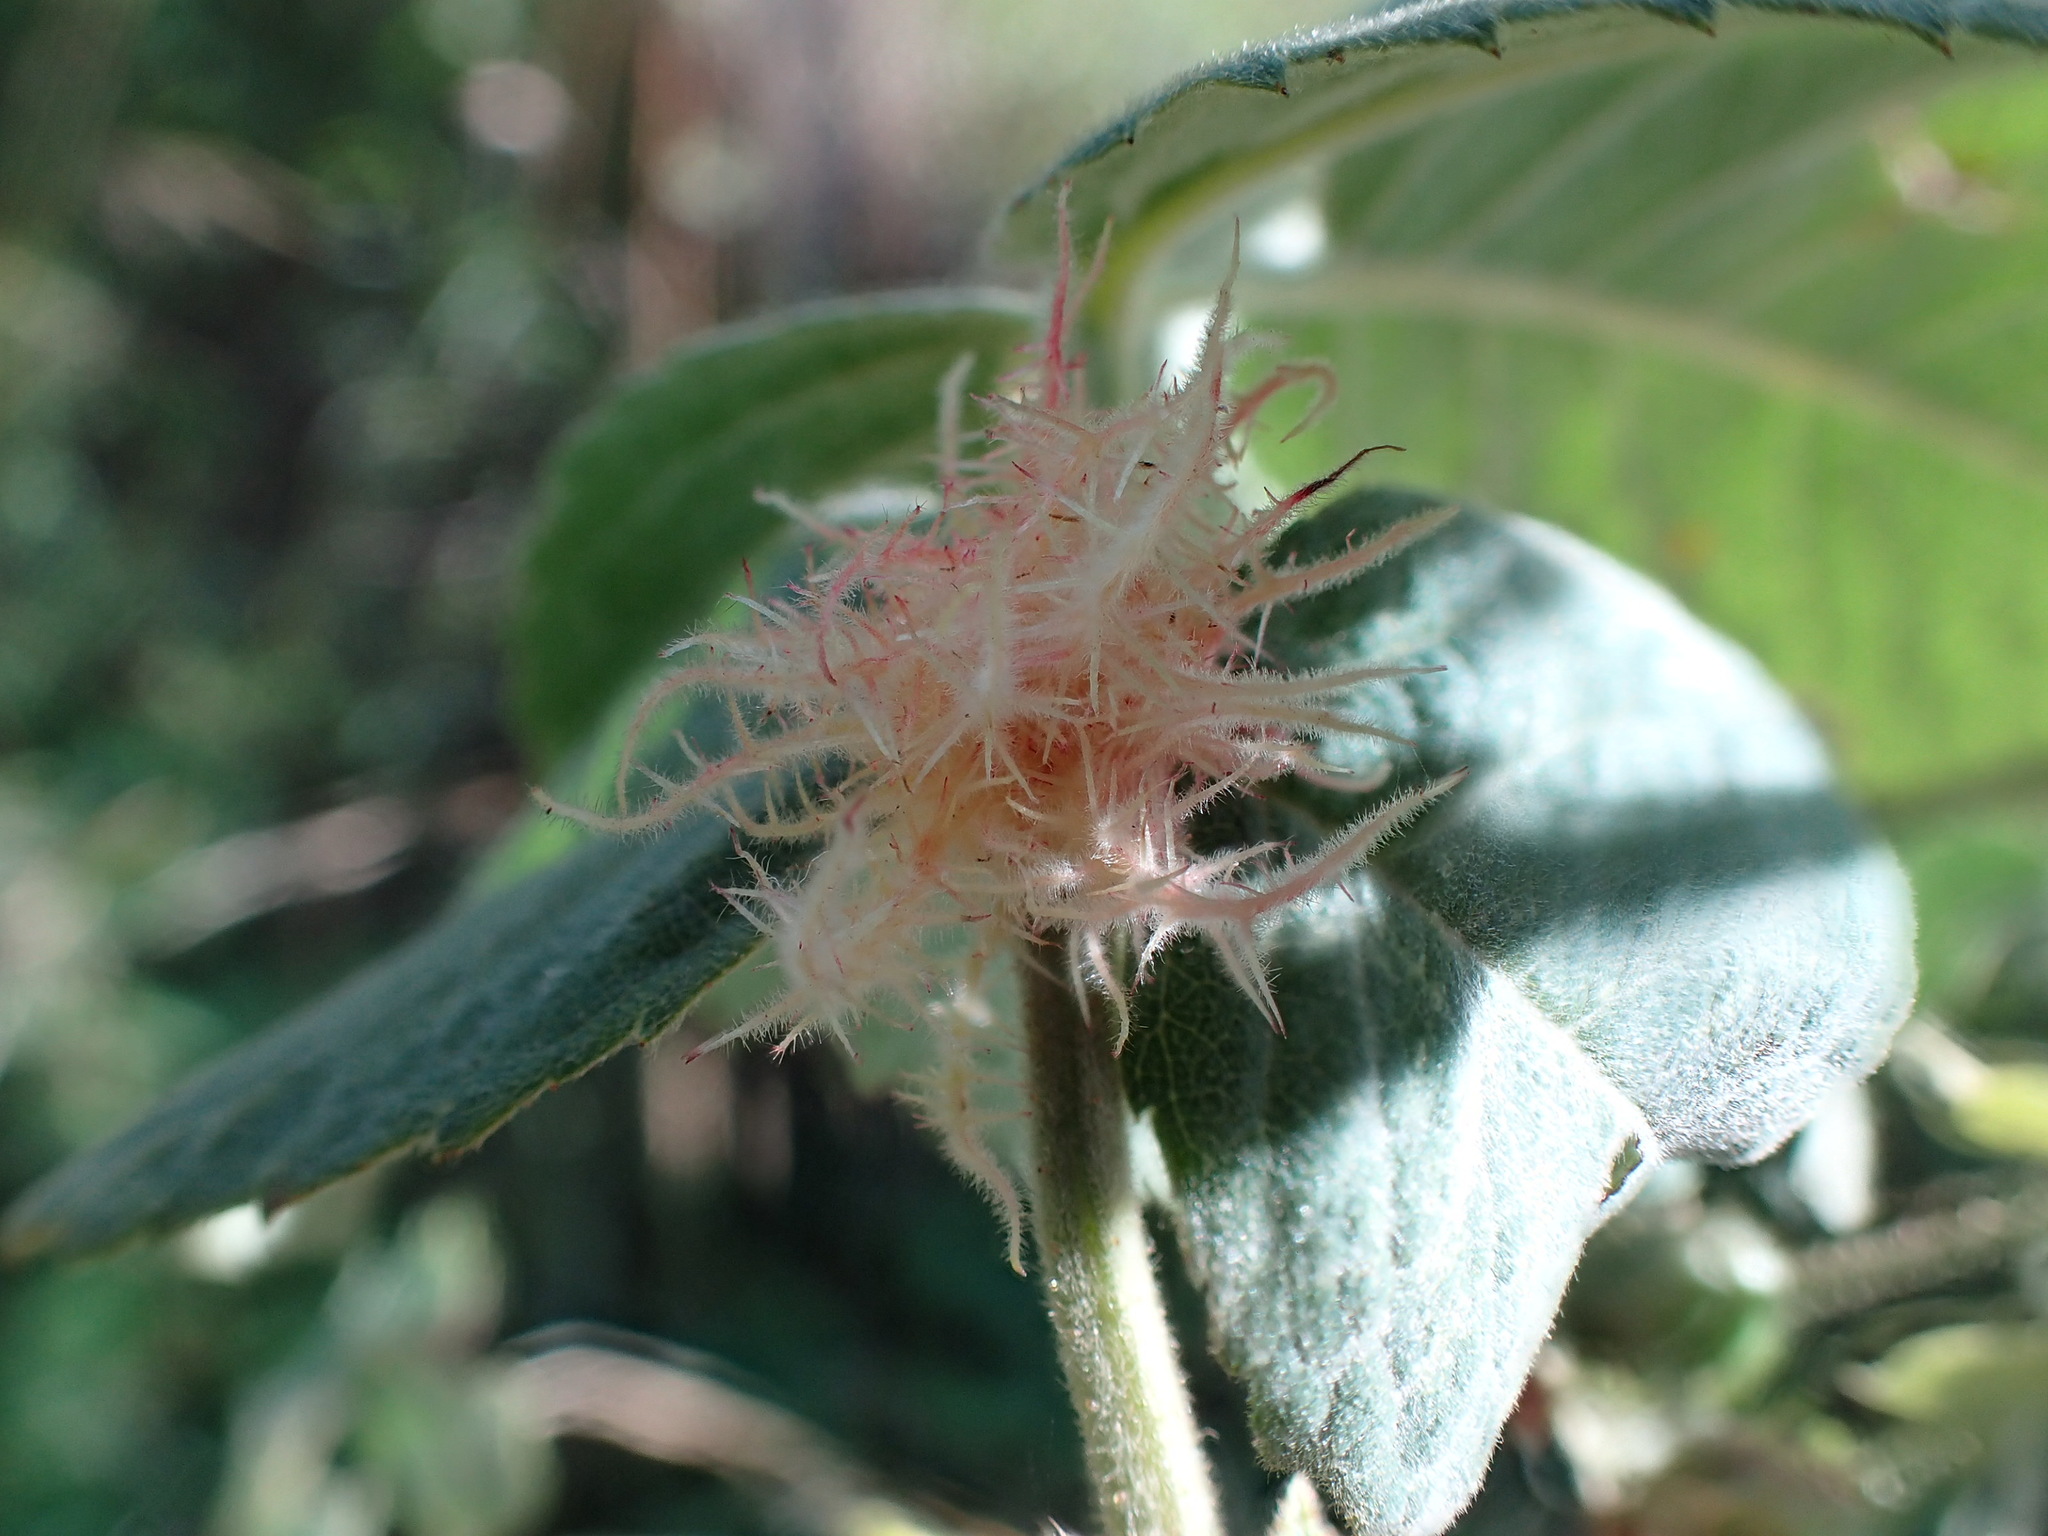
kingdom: Animalia
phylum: Arthropoda
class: Insecta
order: Hymenoptera
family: Cynipidae
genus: Diplolepis
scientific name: Diplolepis rosae
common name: Bedeguar gall
